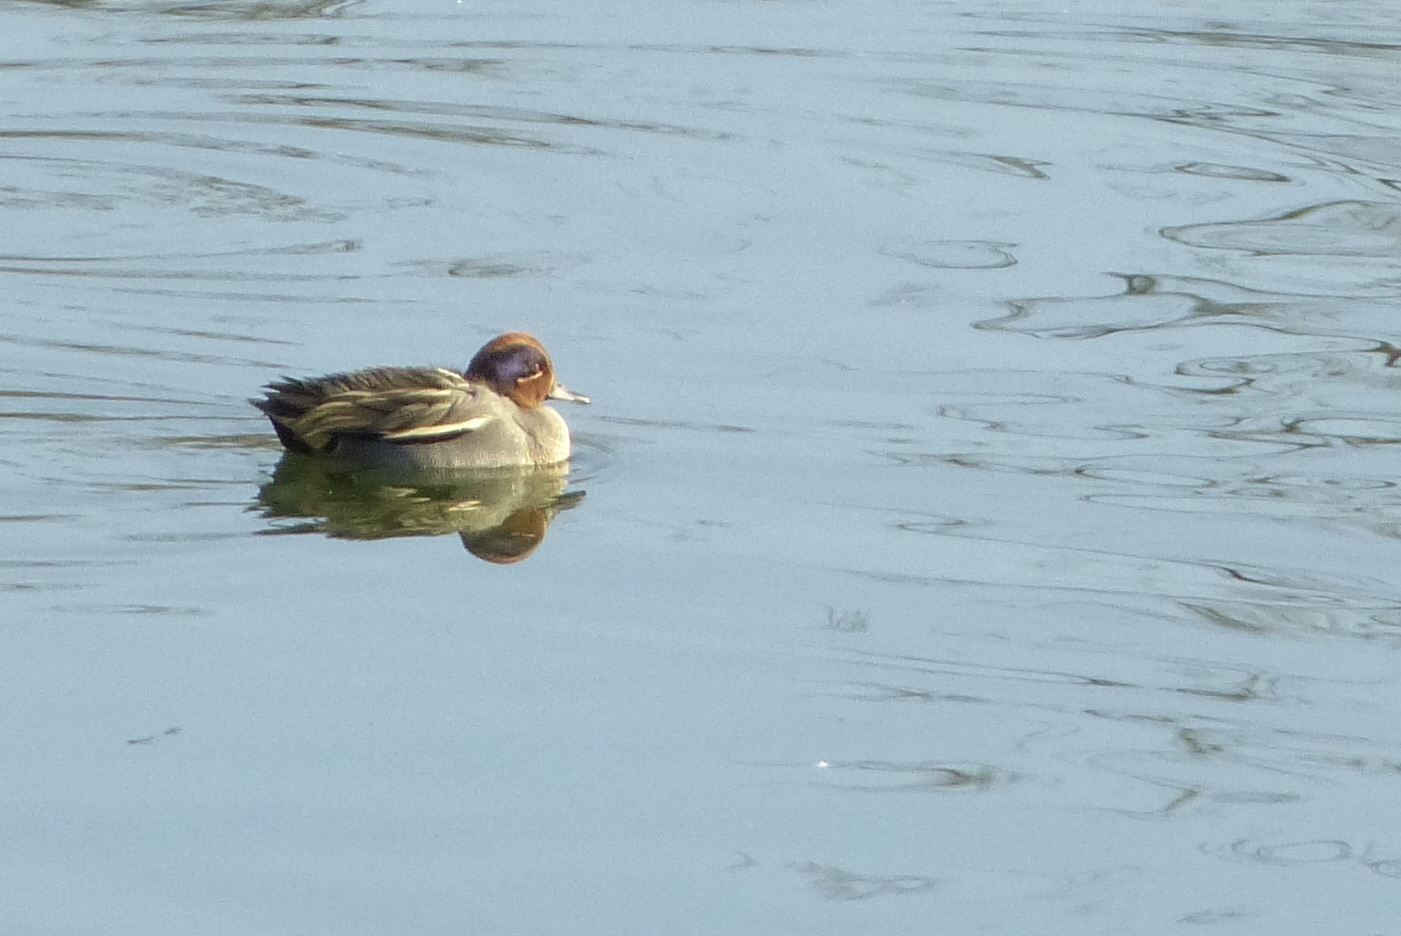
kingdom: Animalia
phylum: Chordata
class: Aves
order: Anseriformes
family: Anatidae
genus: Anas
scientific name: Anas crecca
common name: Eurasian teal
